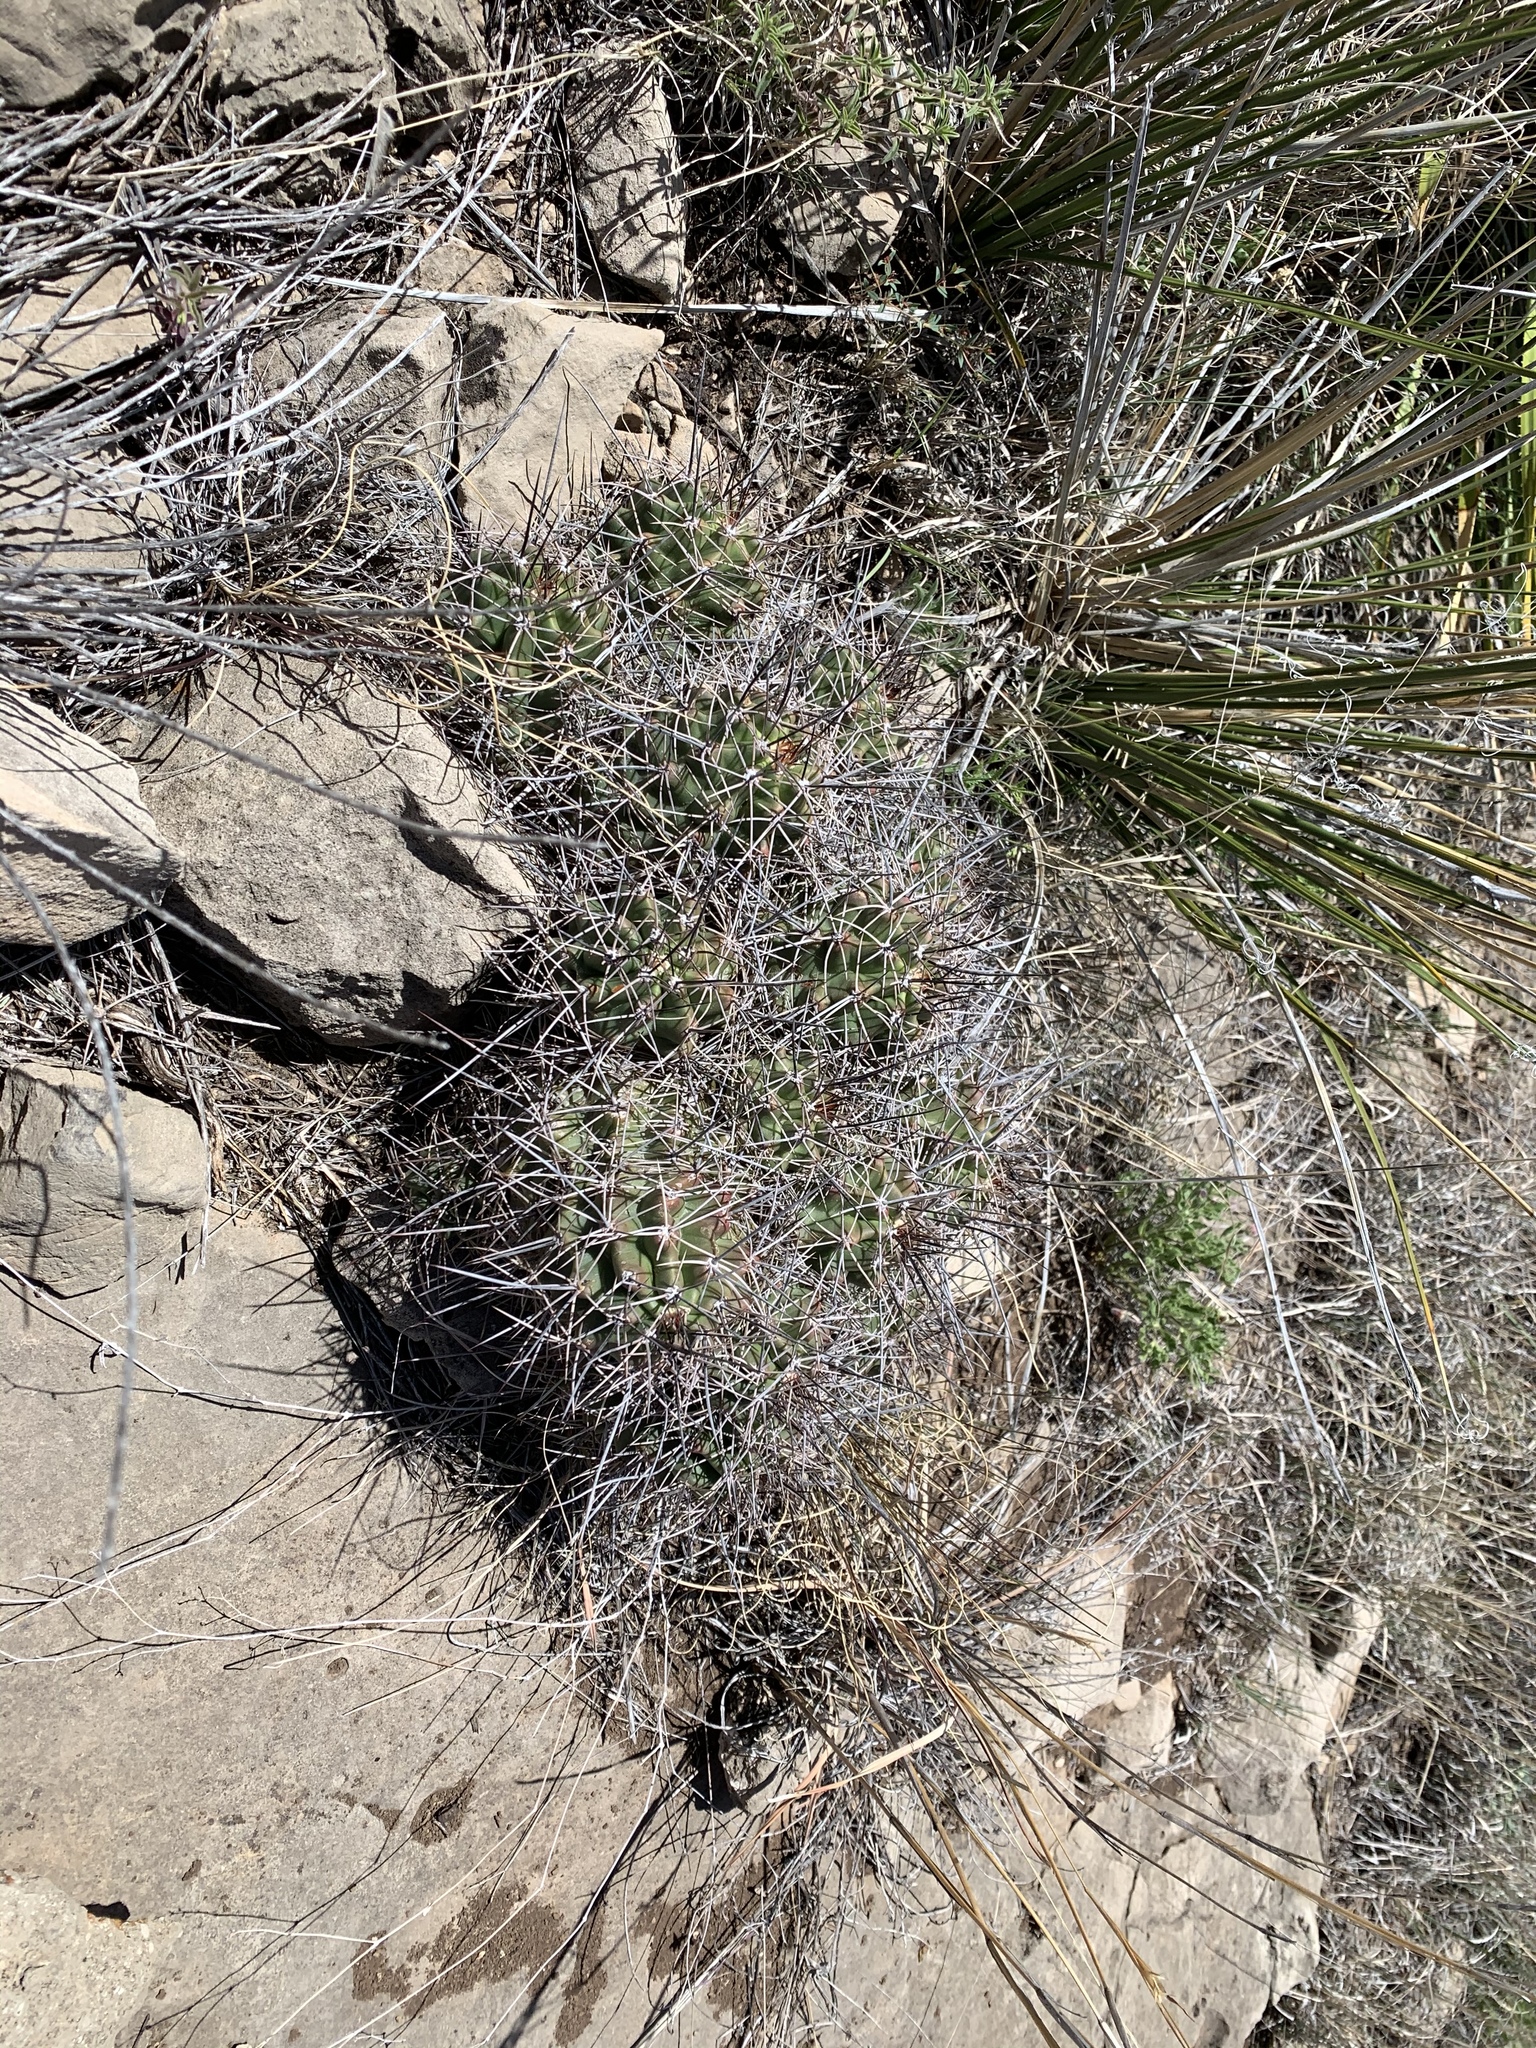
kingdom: Plantae
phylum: Tracheophyta
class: Magnoliopsida
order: Caryophyllales
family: Cactaceae
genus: Echinocereus
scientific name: Echinocereus coccineus
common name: Scarlet hedgehog cactus
